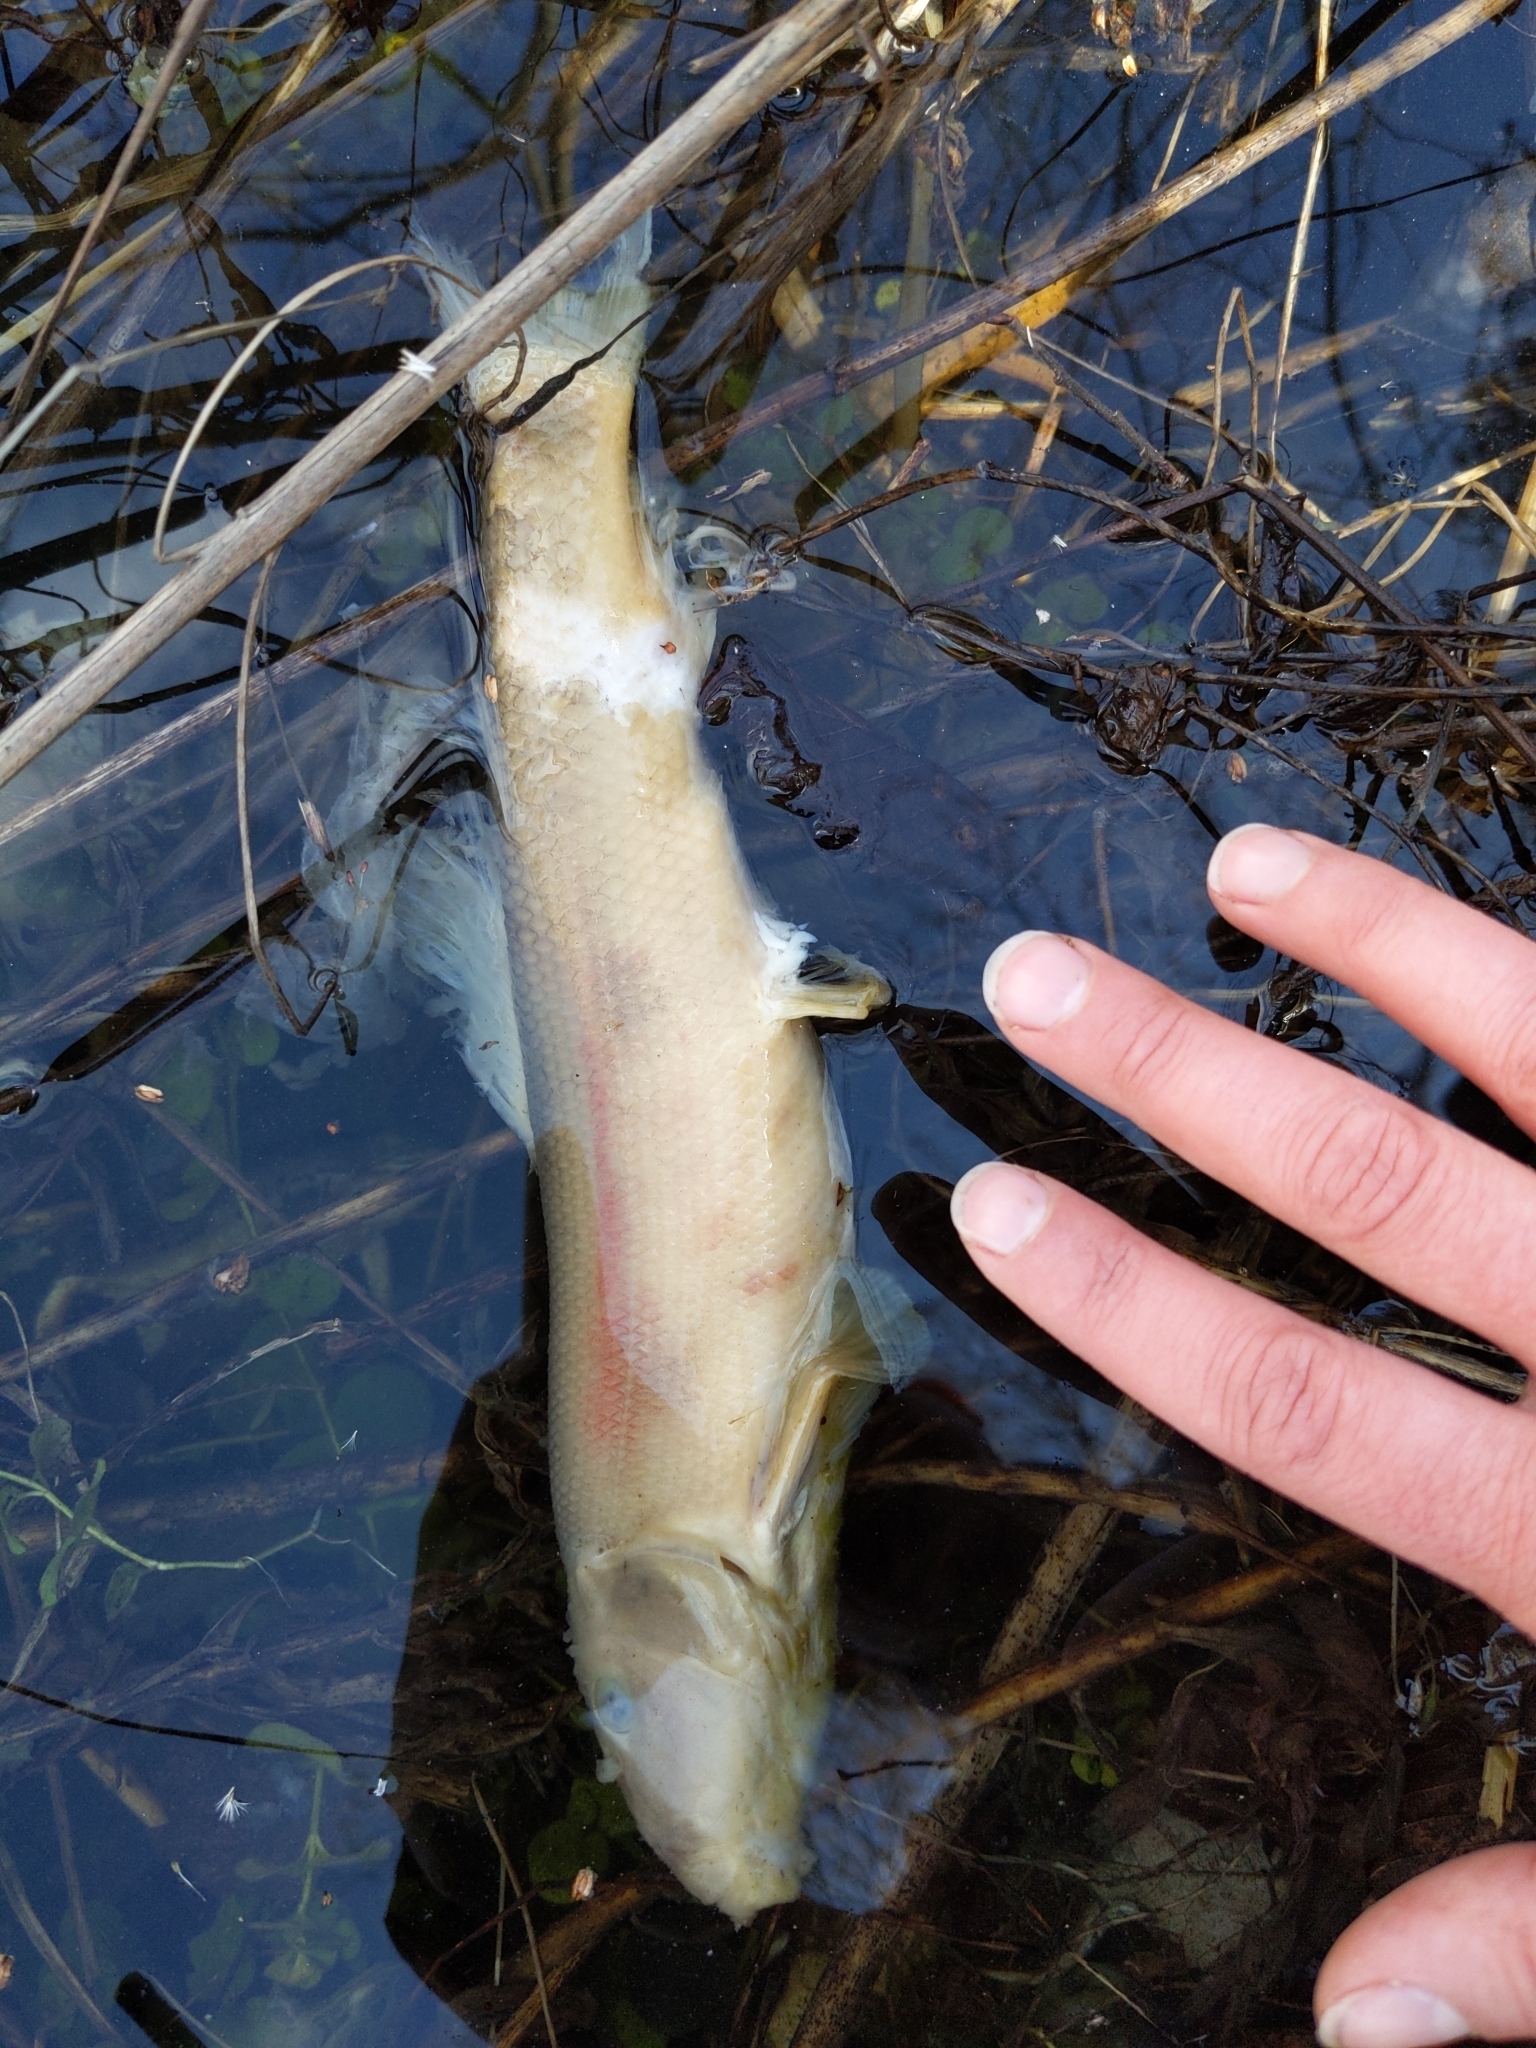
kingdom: Animalia
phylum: Chordata
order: Cypriniformes
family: Catostomidae
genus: Catostomus
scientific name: Catostomus commersonii
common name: White sucker
